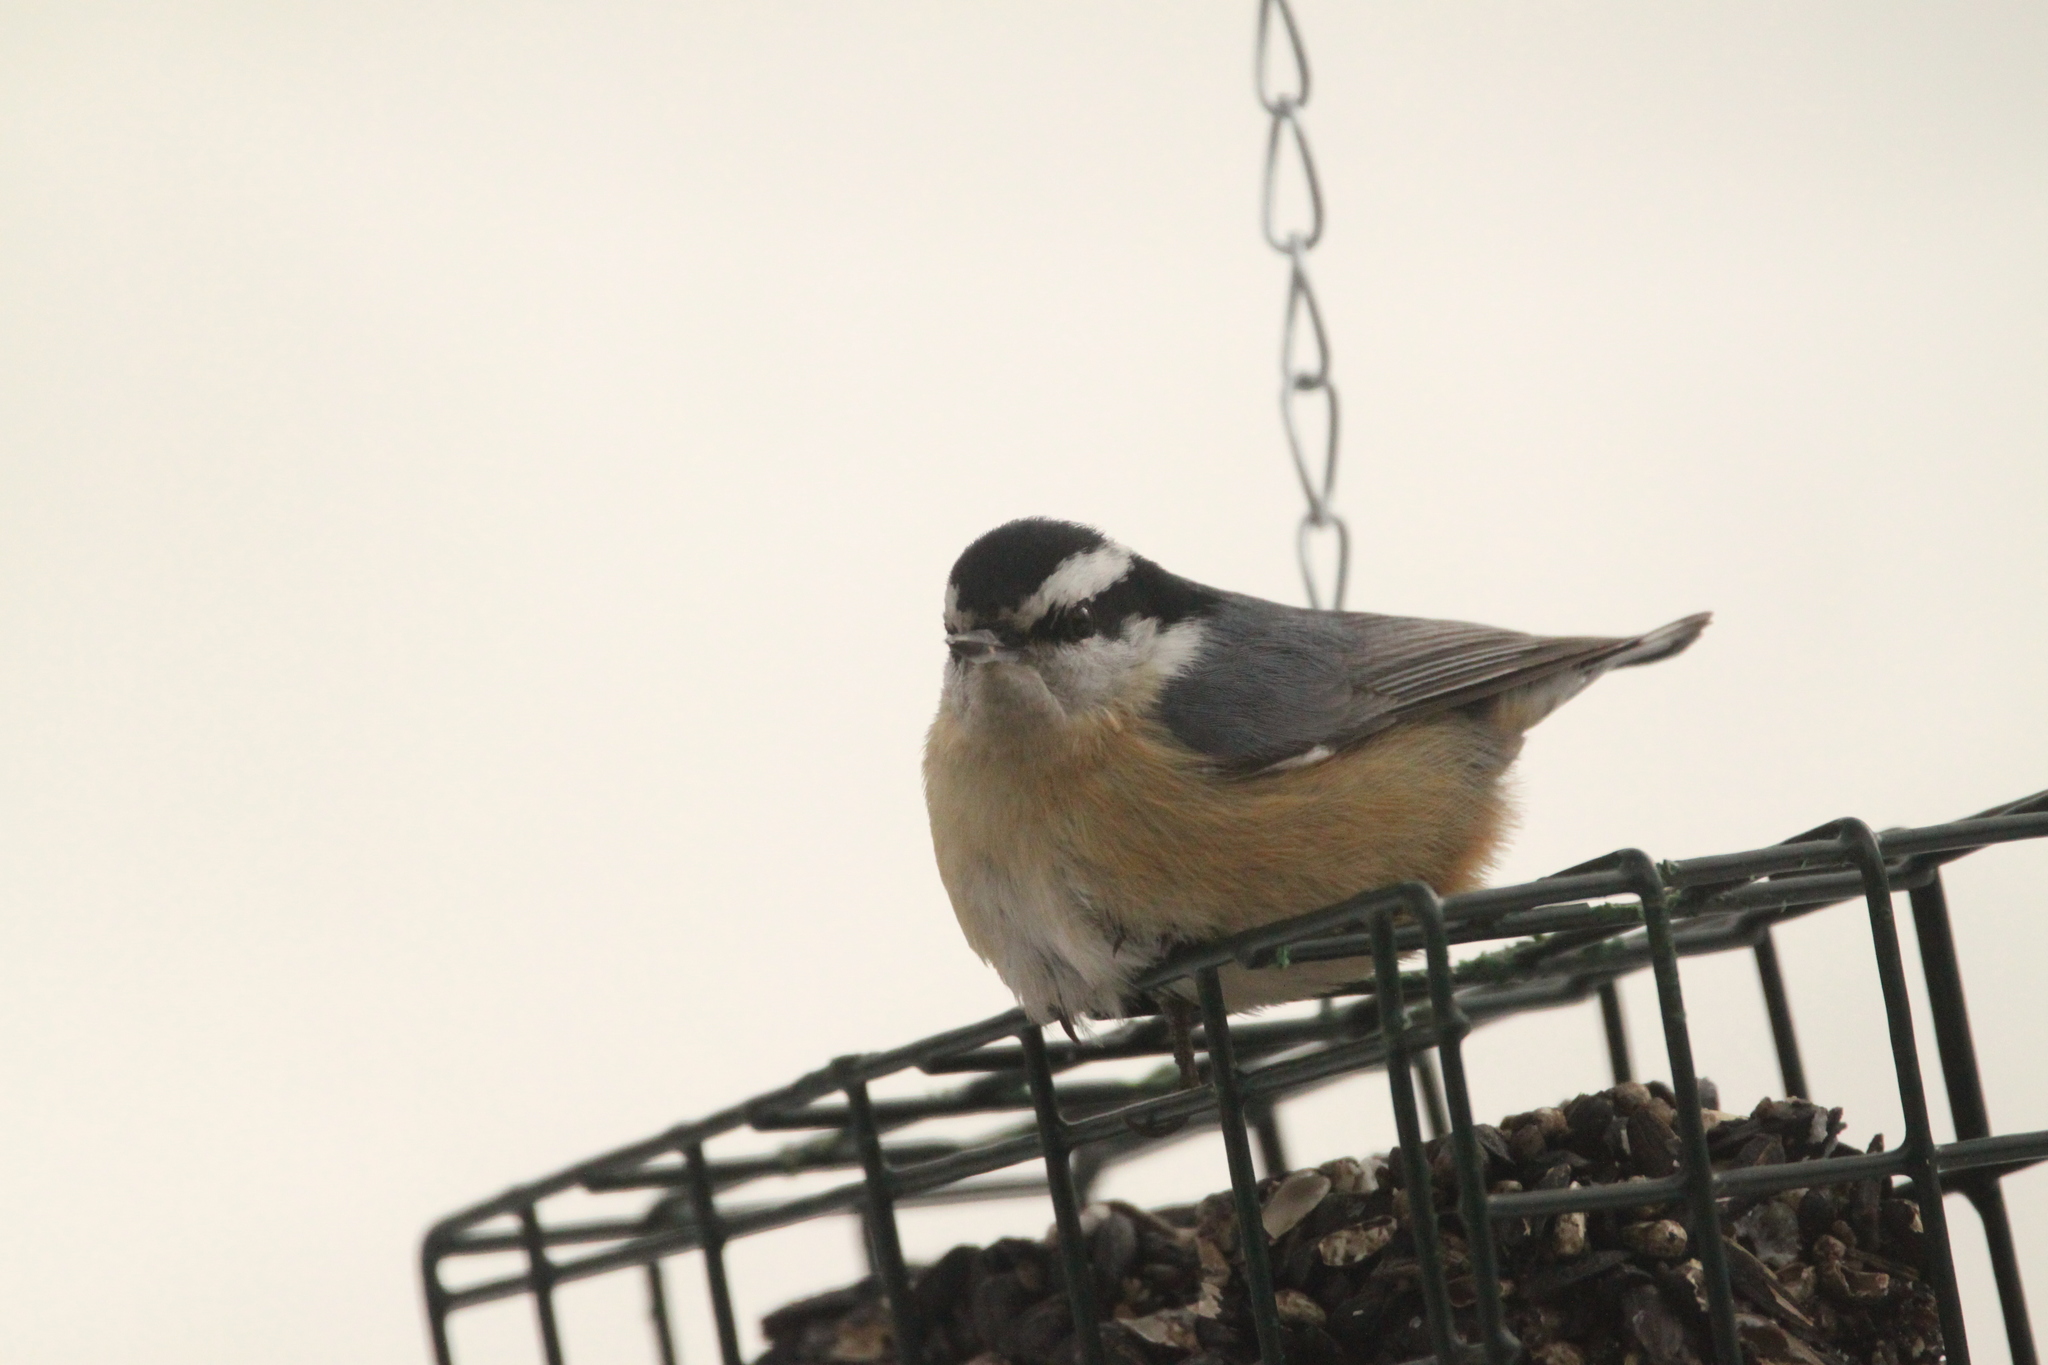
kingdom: Animalia
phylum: Chordata
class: Aves
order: Passeriformes
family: Sittidae
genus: Sitta
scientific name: Sitta canadensis
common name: Red-breasted nuthatch
